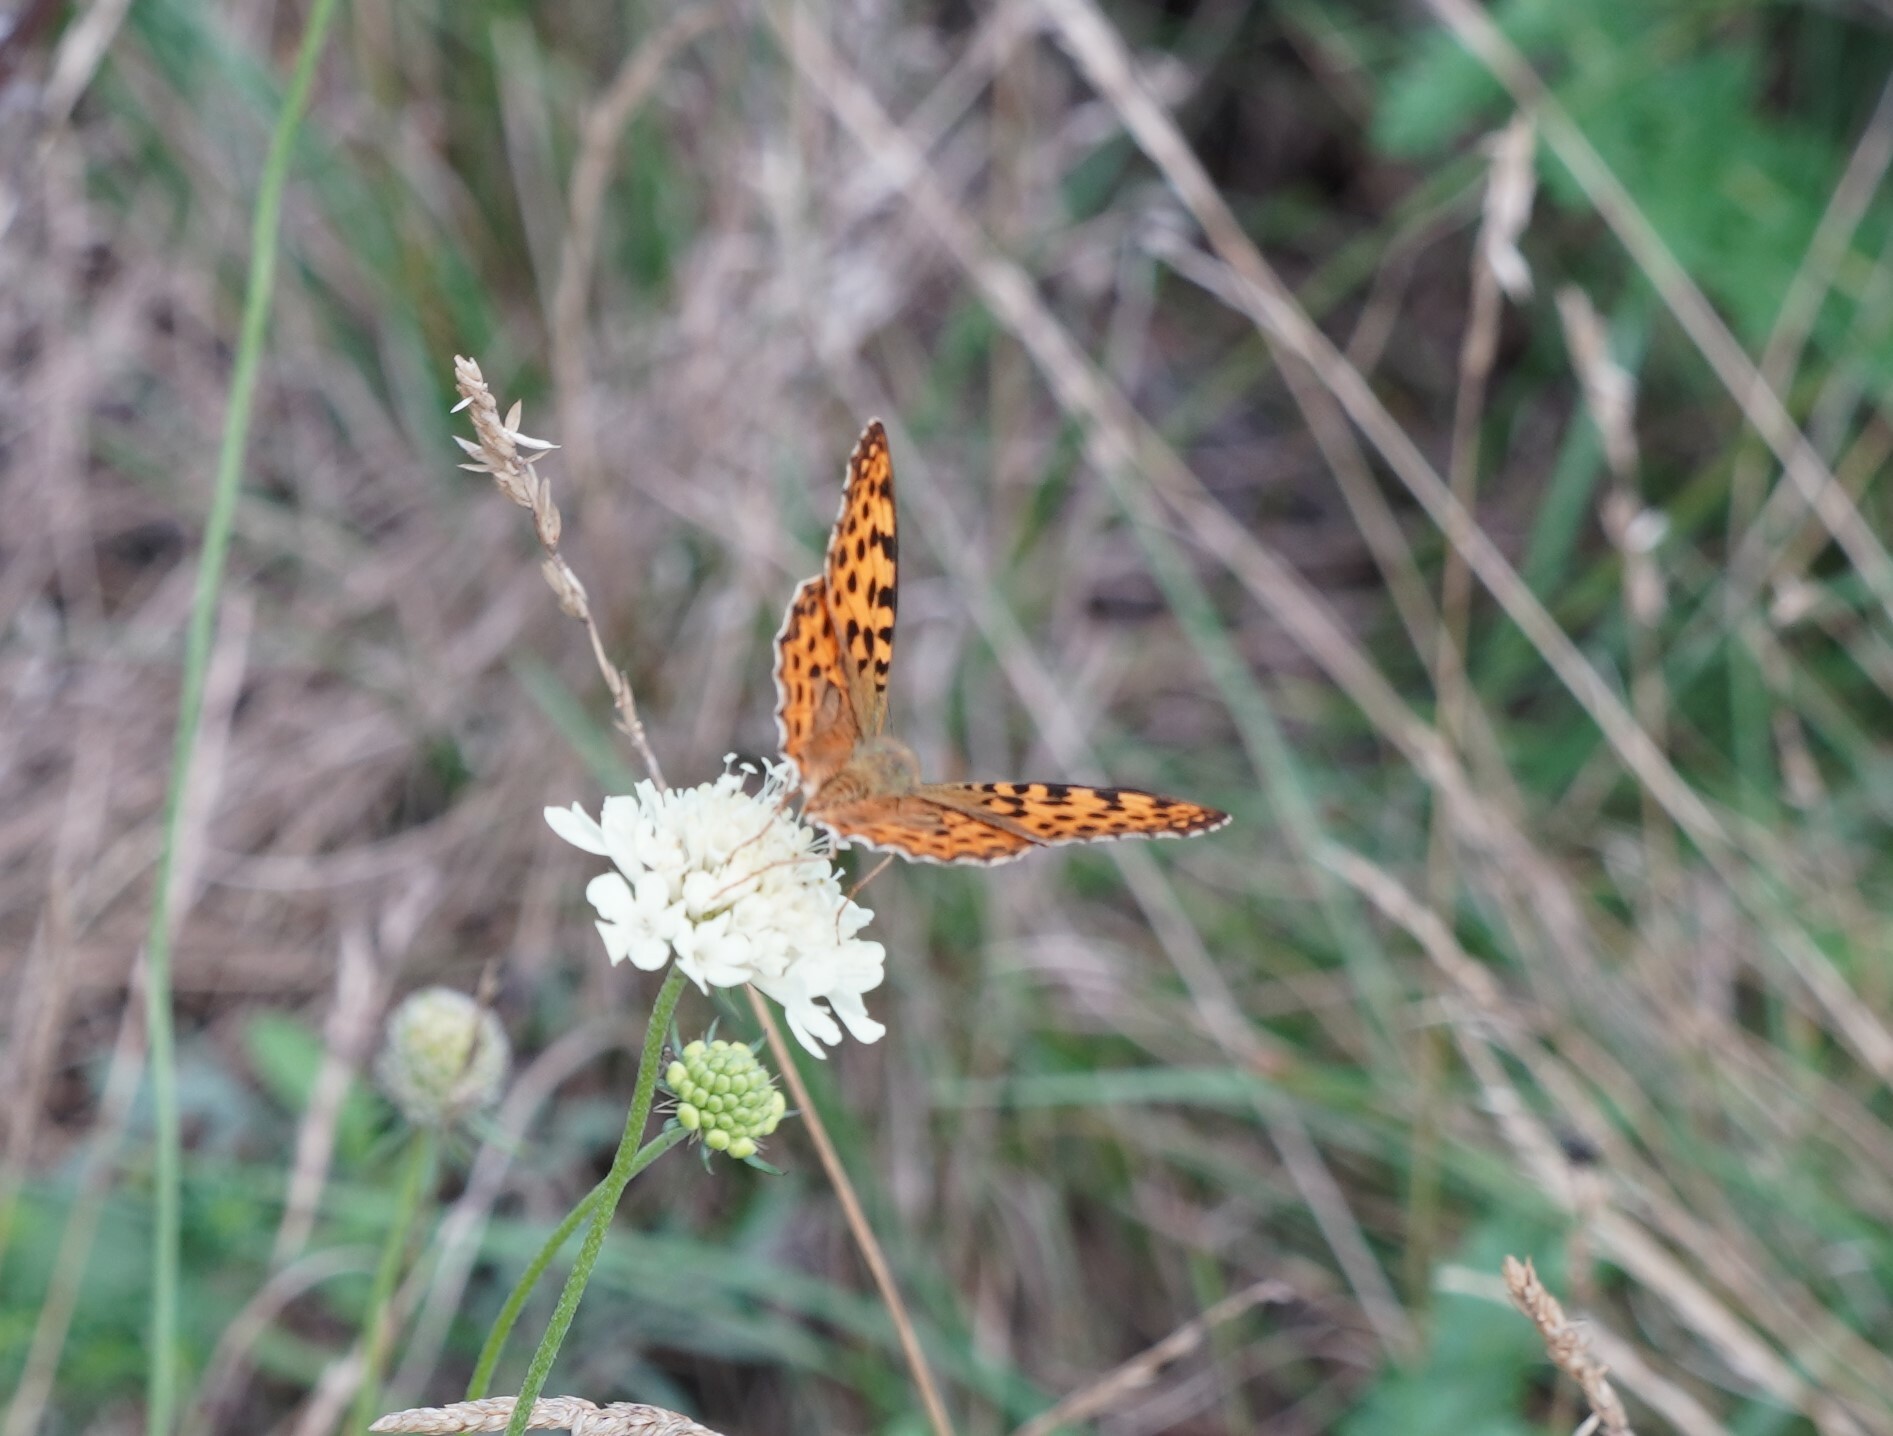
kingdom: Animalia
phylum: Arthropoda
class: Insecta
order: Lepidoptera
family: Nymphalidae
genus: Issoria
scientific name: Issoria lathonia
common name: Queen of spain fritillary
